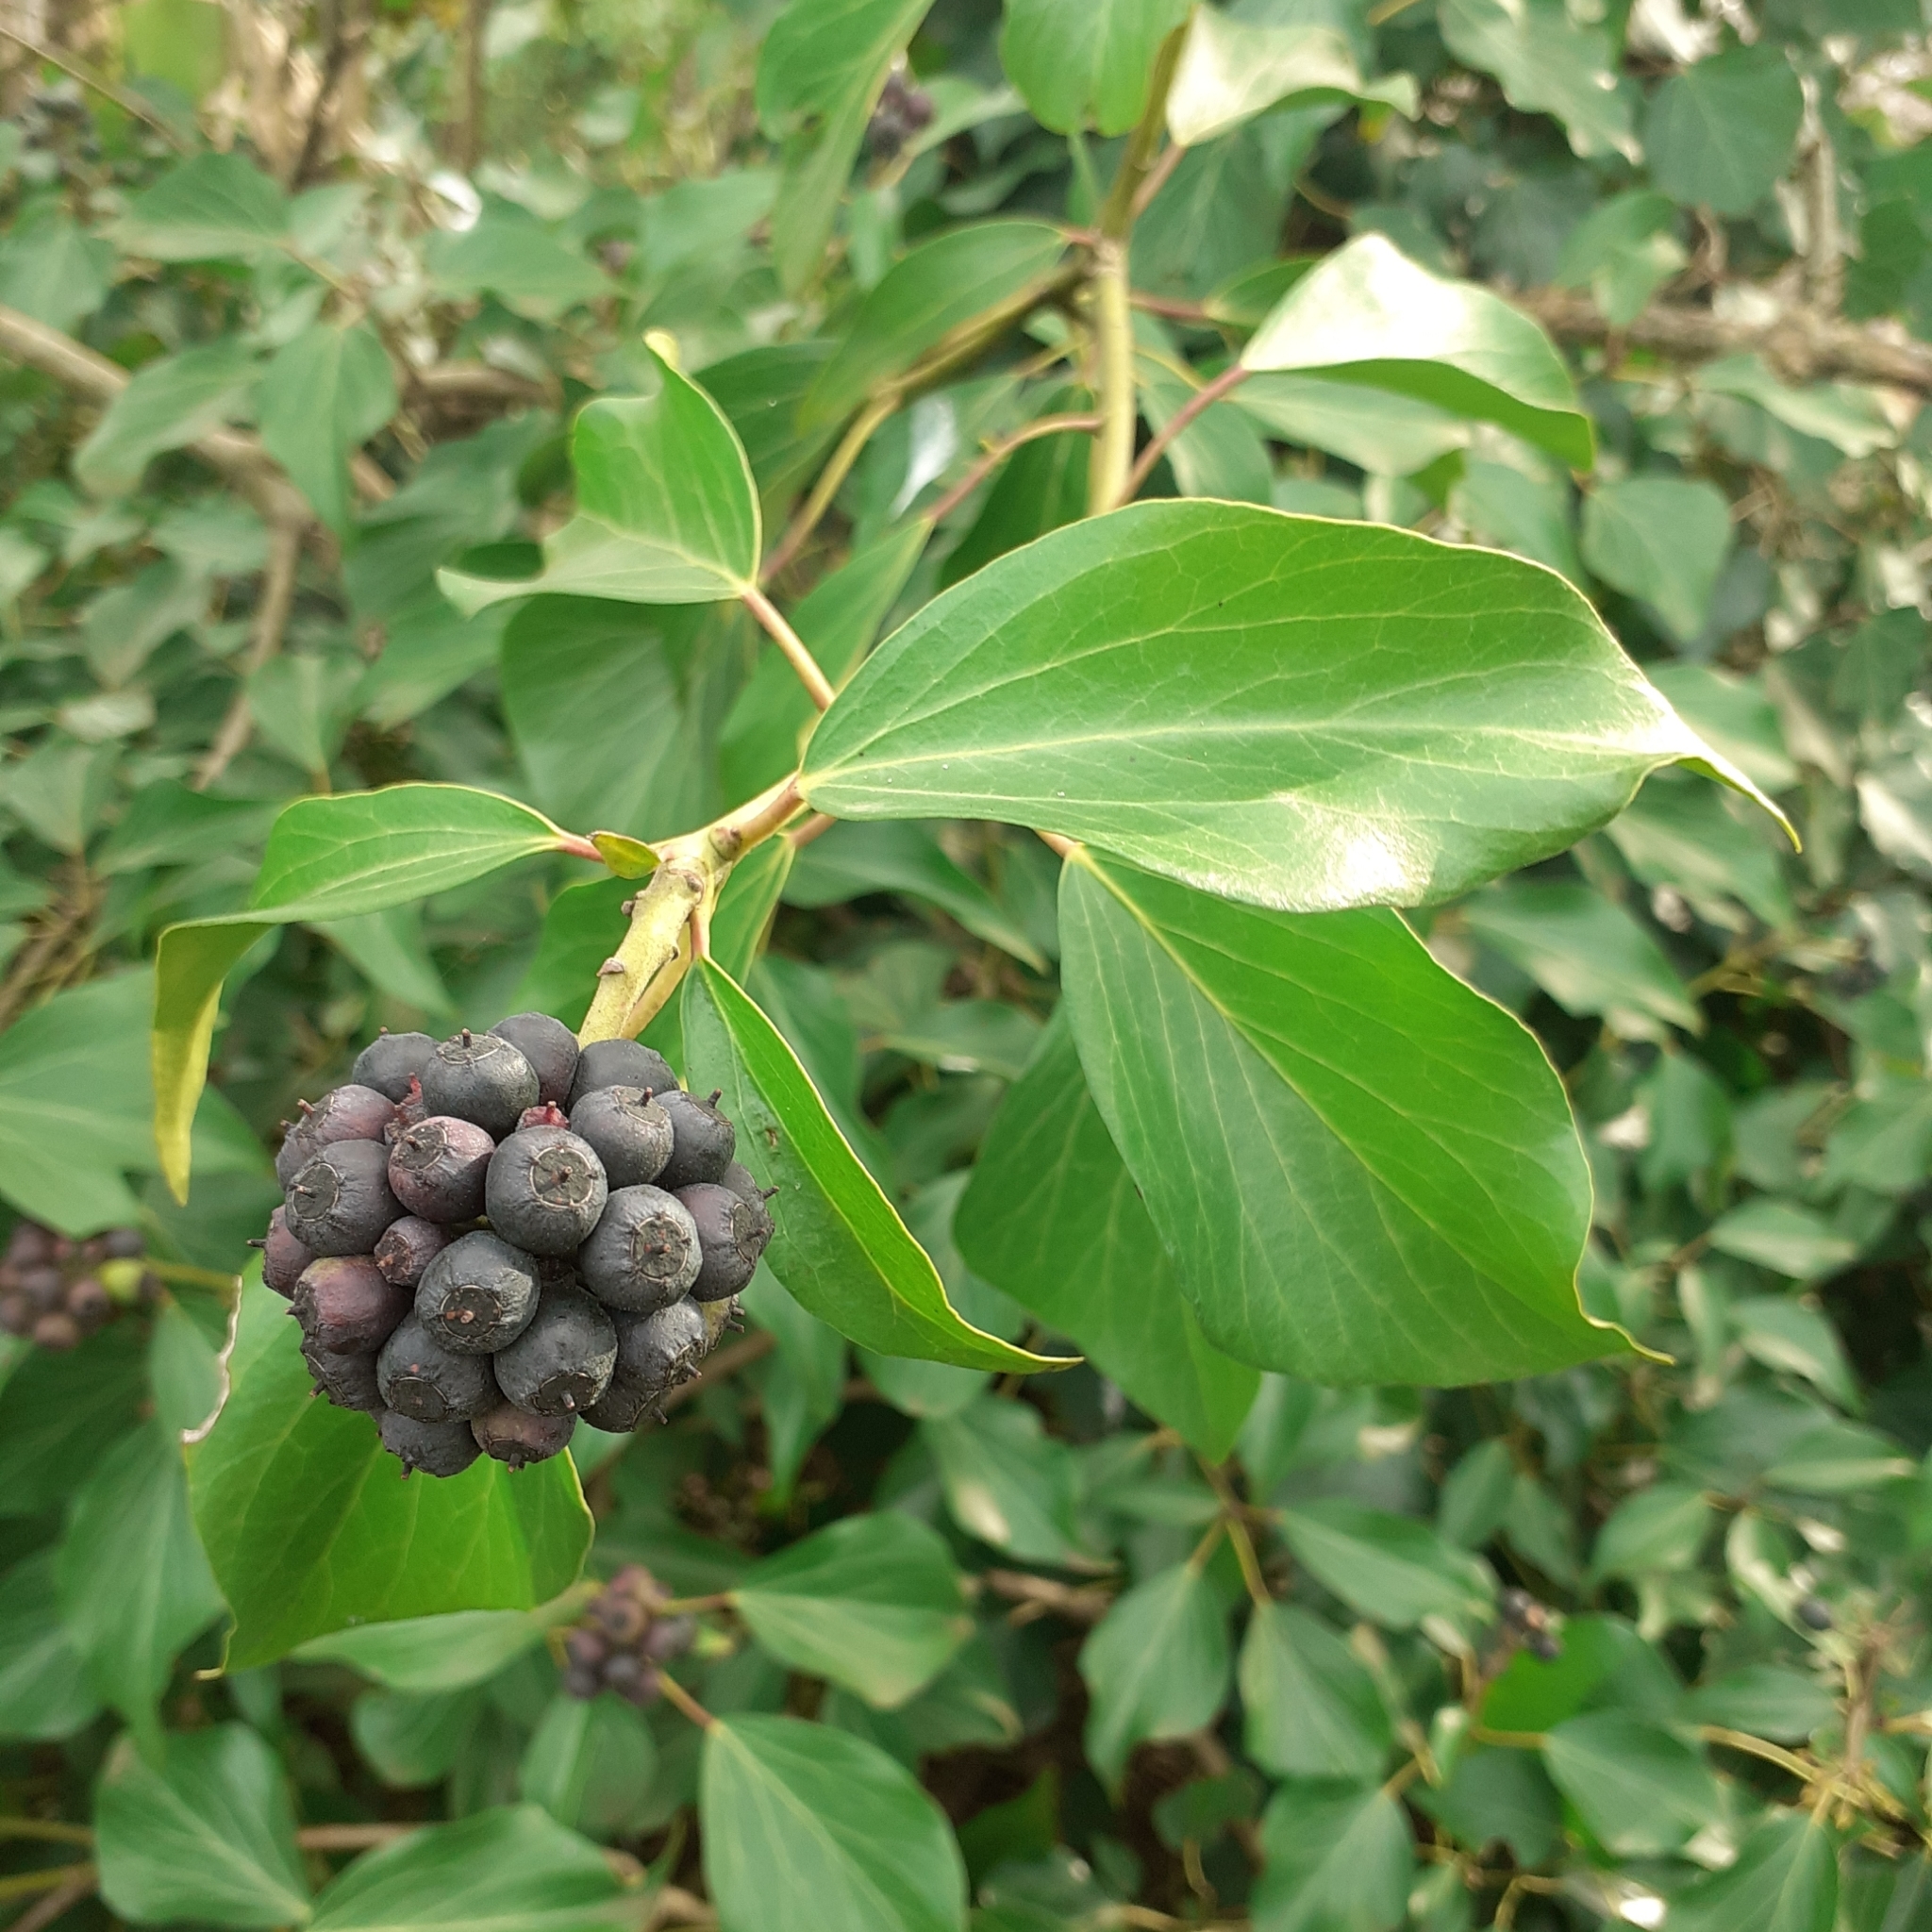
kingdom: Plantae
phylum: Tracheophyta
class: Magnoliopsida
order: Apiales
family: Araliaceae
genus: Hedera
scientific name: Hedera helix
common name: Ivy
